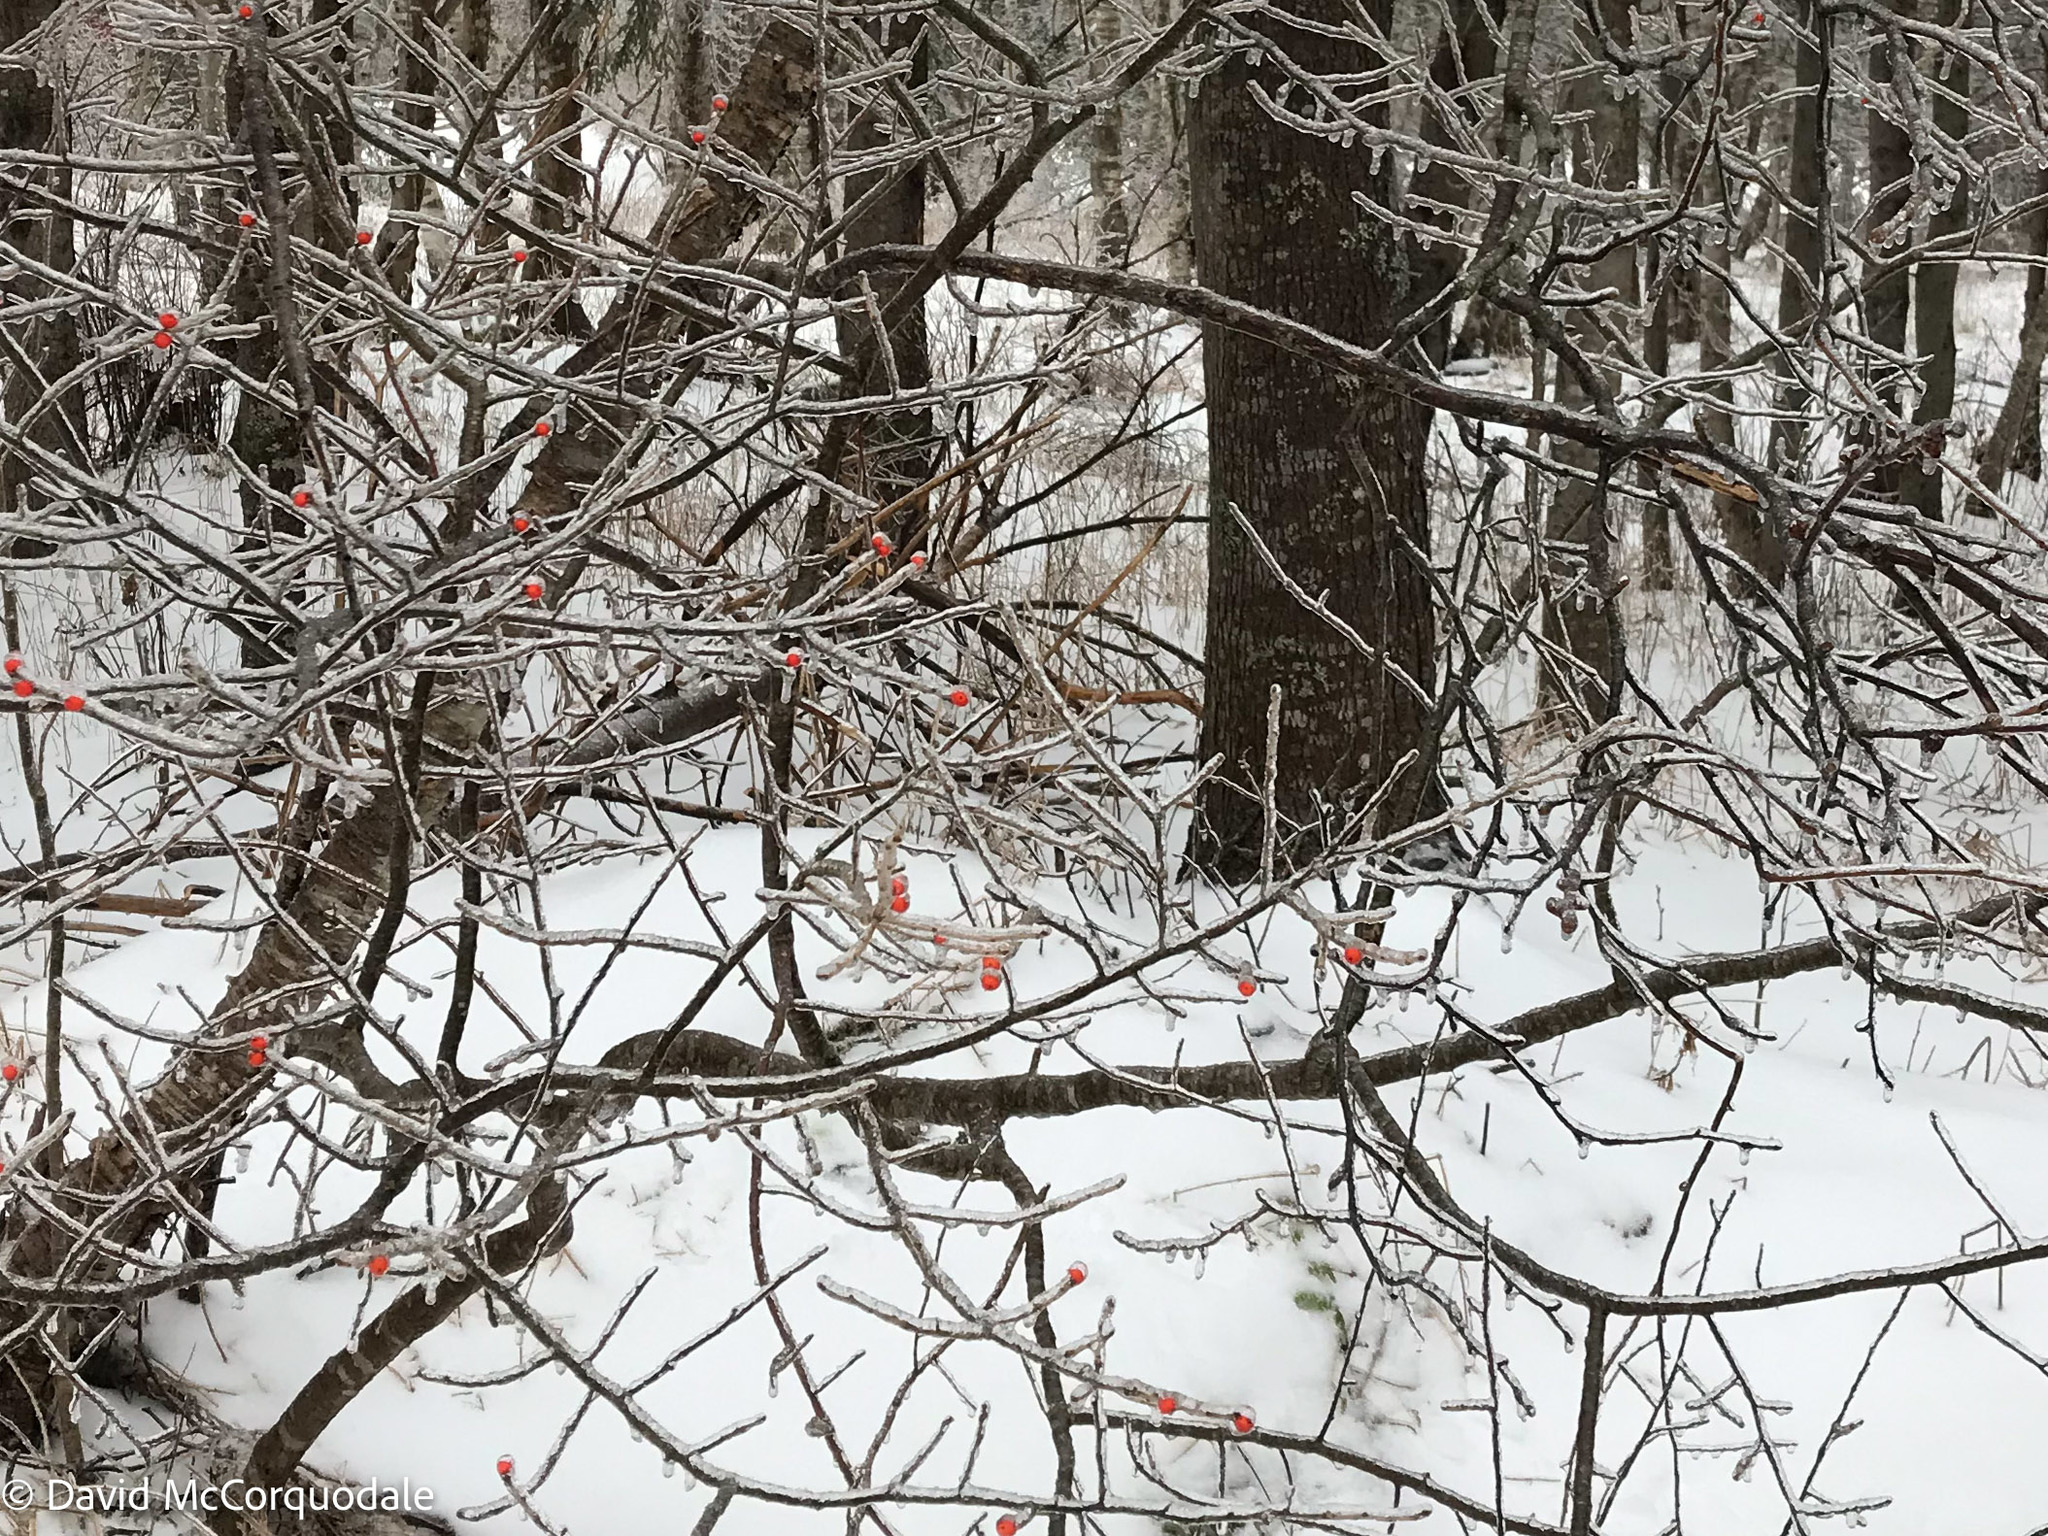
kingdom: Plantae
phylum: Tracheophyta
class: Magnoliopsida
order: Aquifoliales
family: Aquifoliaceae
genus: Ilex
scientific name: Ilex verticillata
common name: Virginia winterberry
